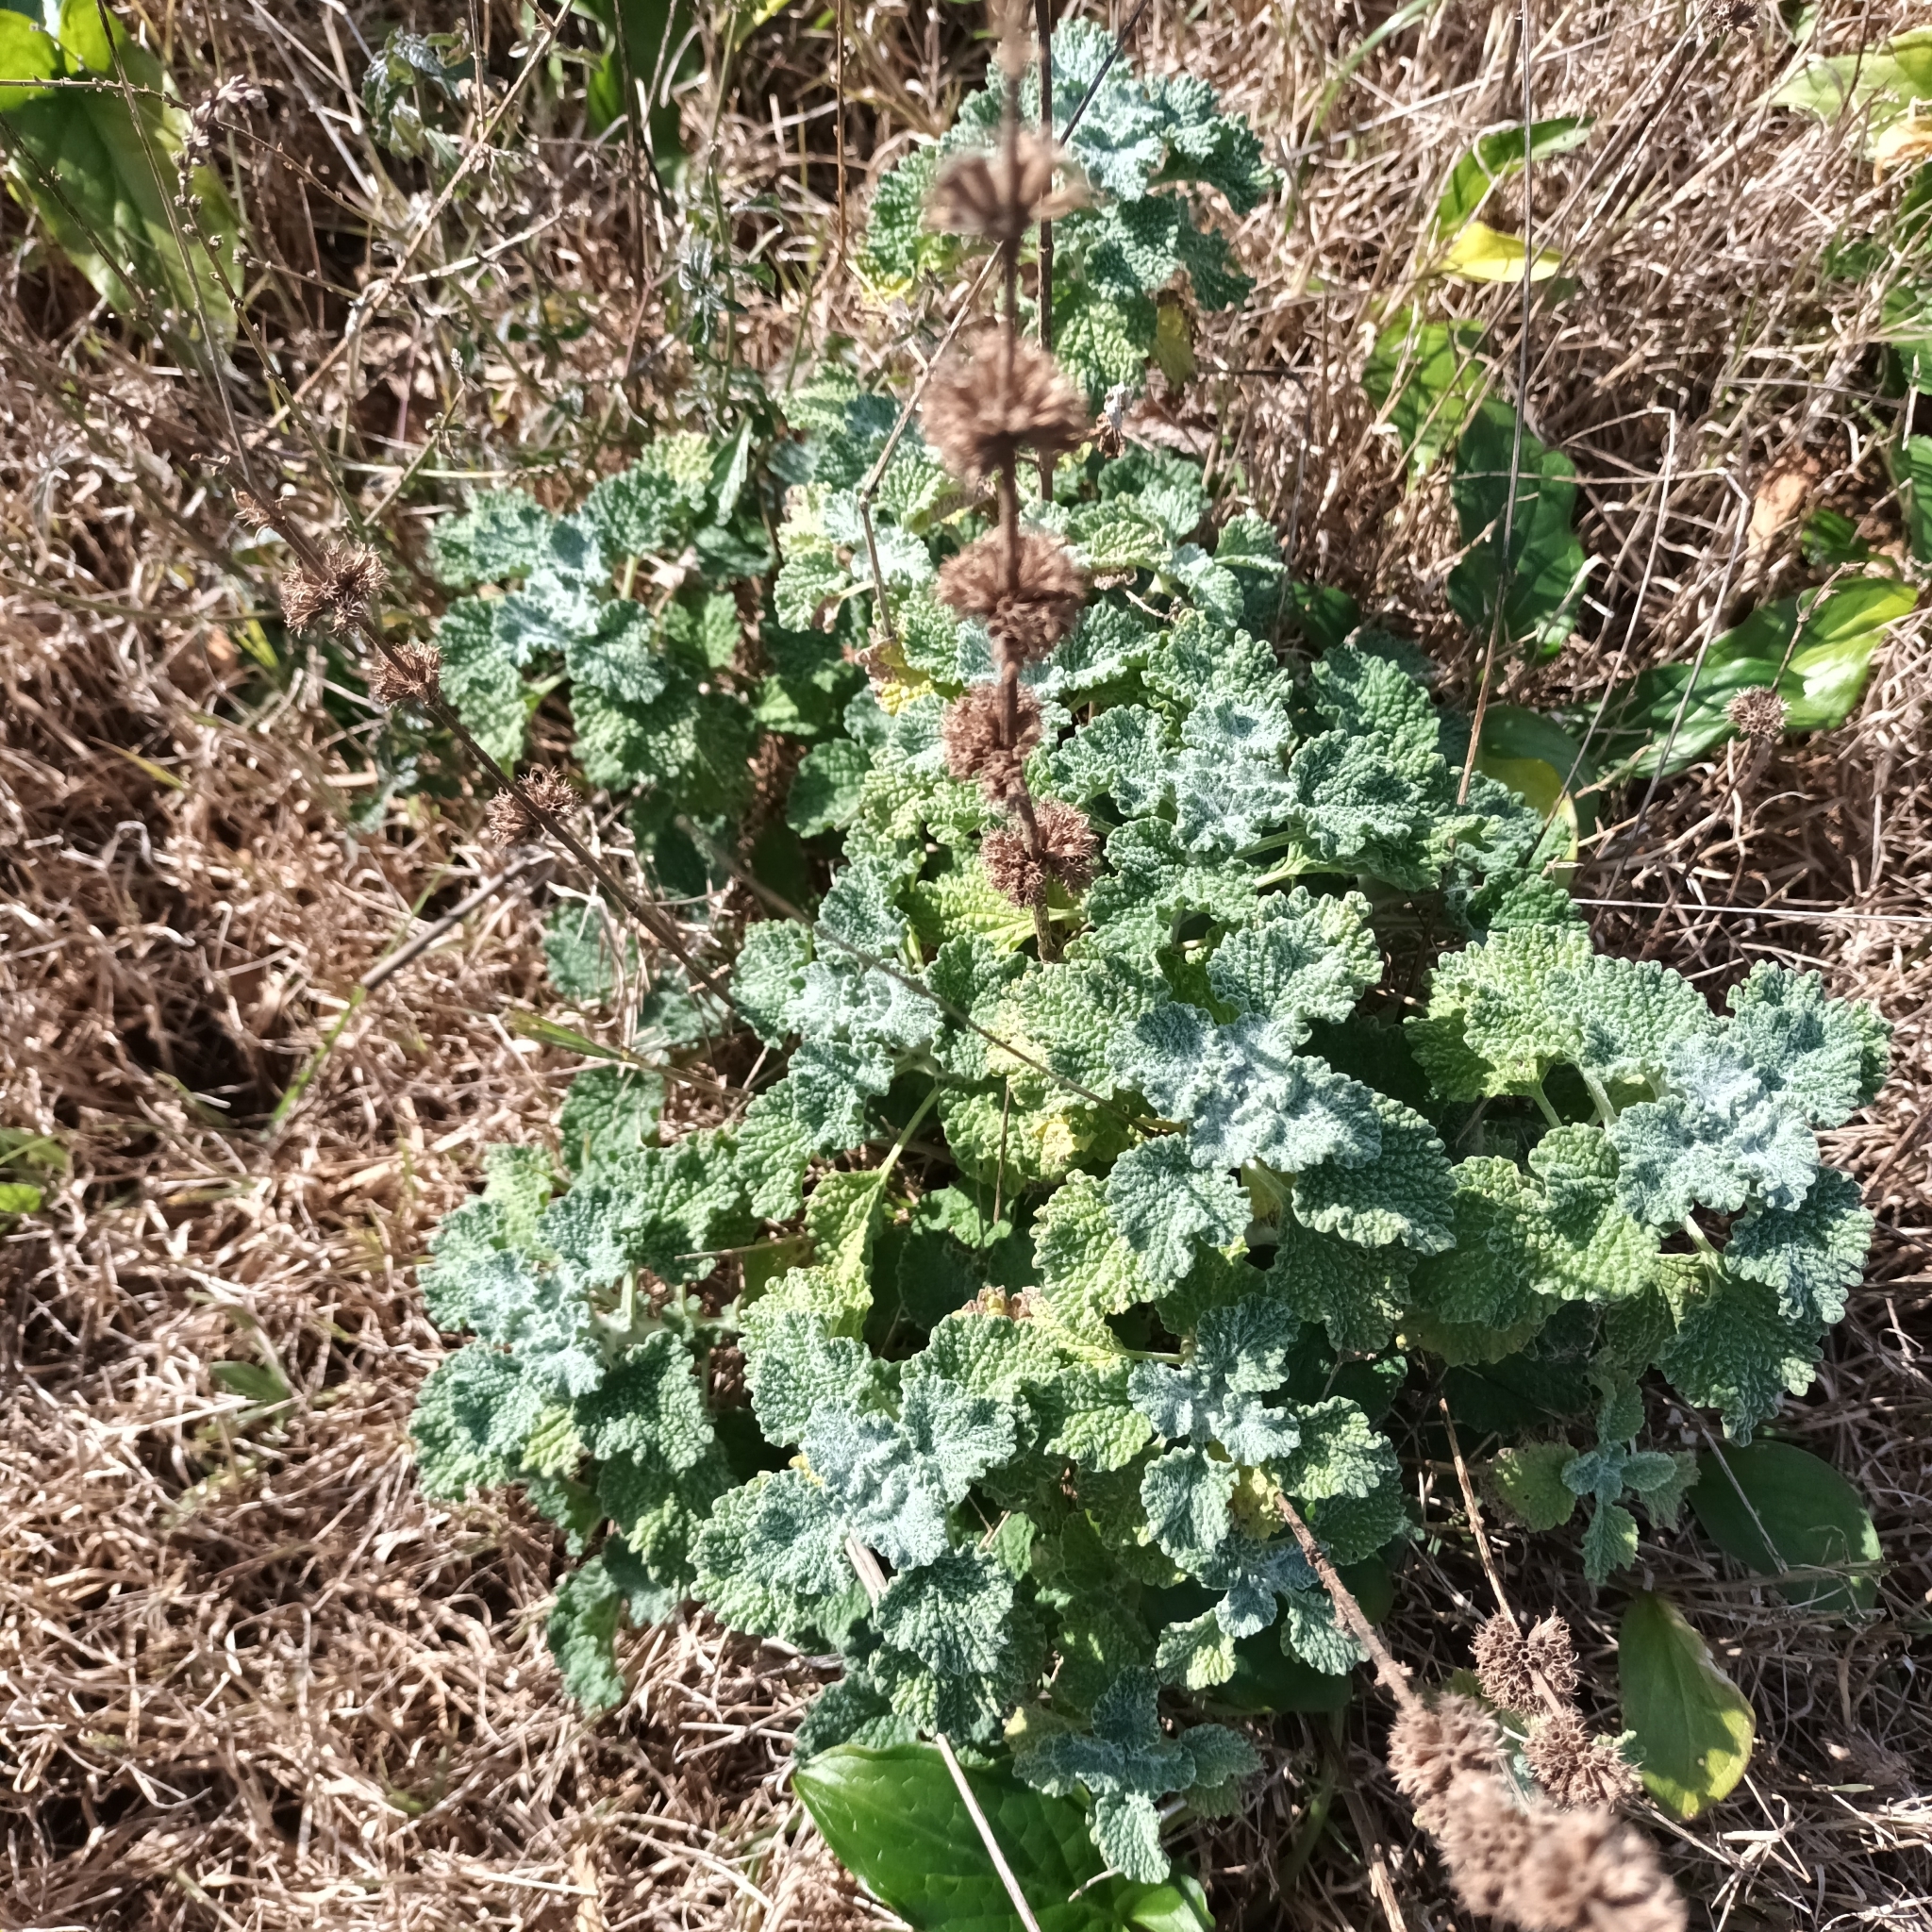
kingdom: Plantae
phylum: Tracheophyta
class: Magnoliopsida
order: Lamiales
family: Lamiaceae
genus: Marrubium
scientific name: Marrubium vulgare
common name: Horehound
